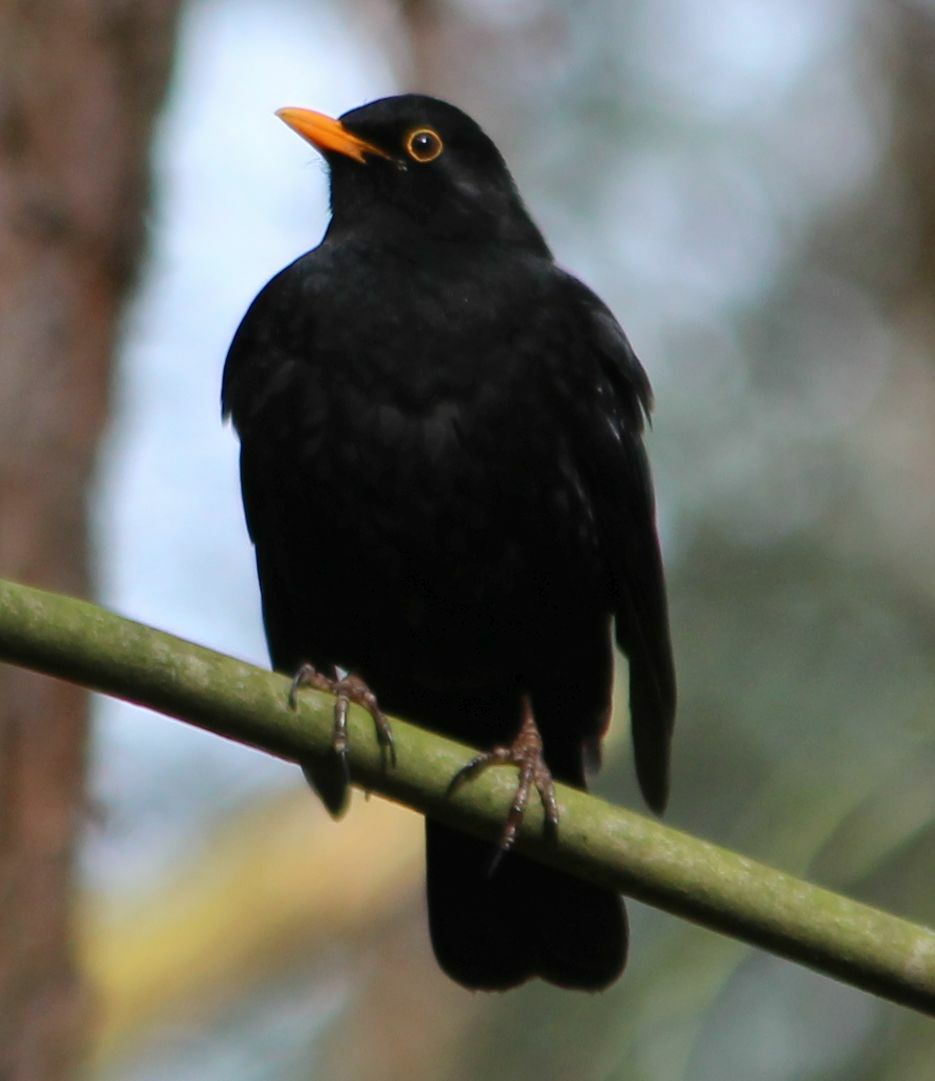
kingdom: Animalia
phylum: Chordata
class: Aves
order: Passeriformes
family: Turdidae
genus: Turdus
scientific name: Turdus merula
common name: Common blackbird
